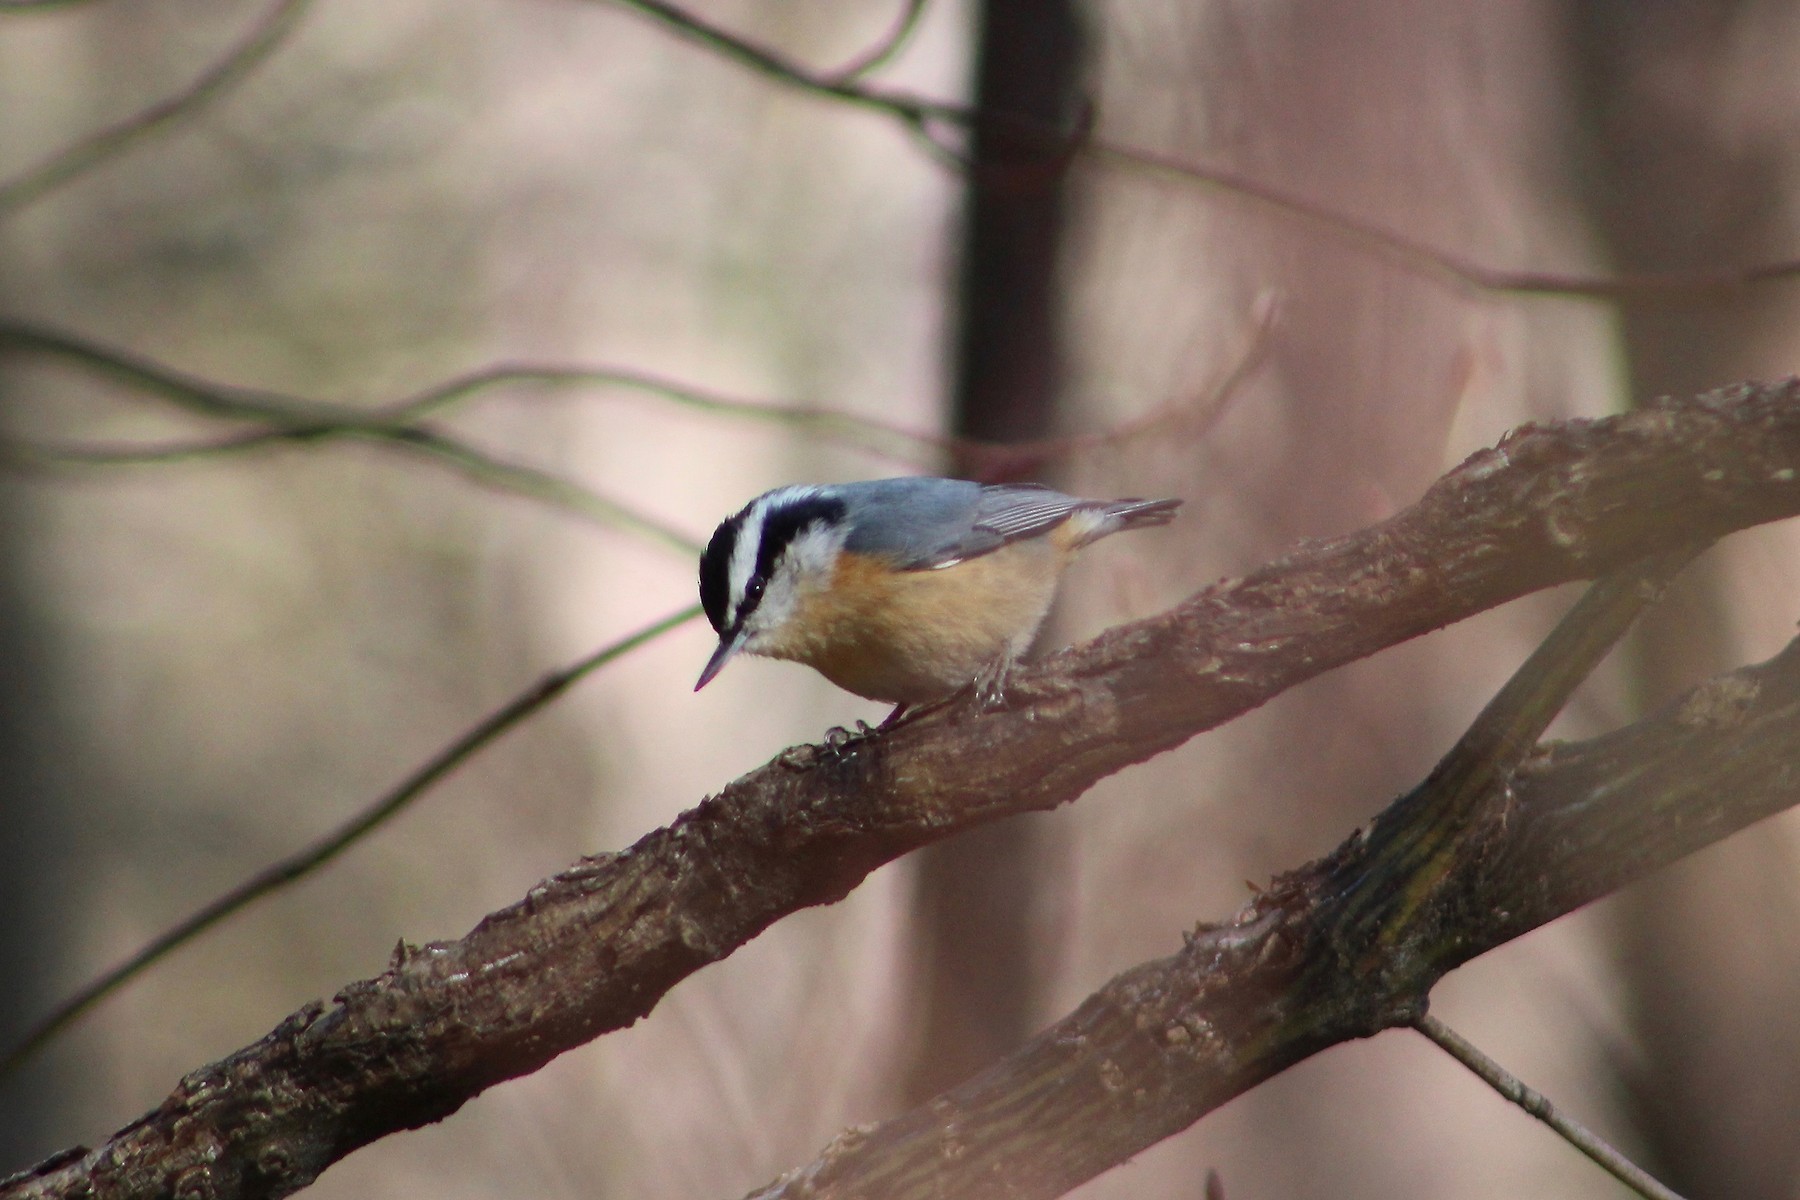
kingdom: Animalia
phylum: Chordata
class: Aves
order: Passeriformes
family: Sittidae
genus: Sitta
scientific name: Sitta canadensis
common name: Red-breasted nuthatch
